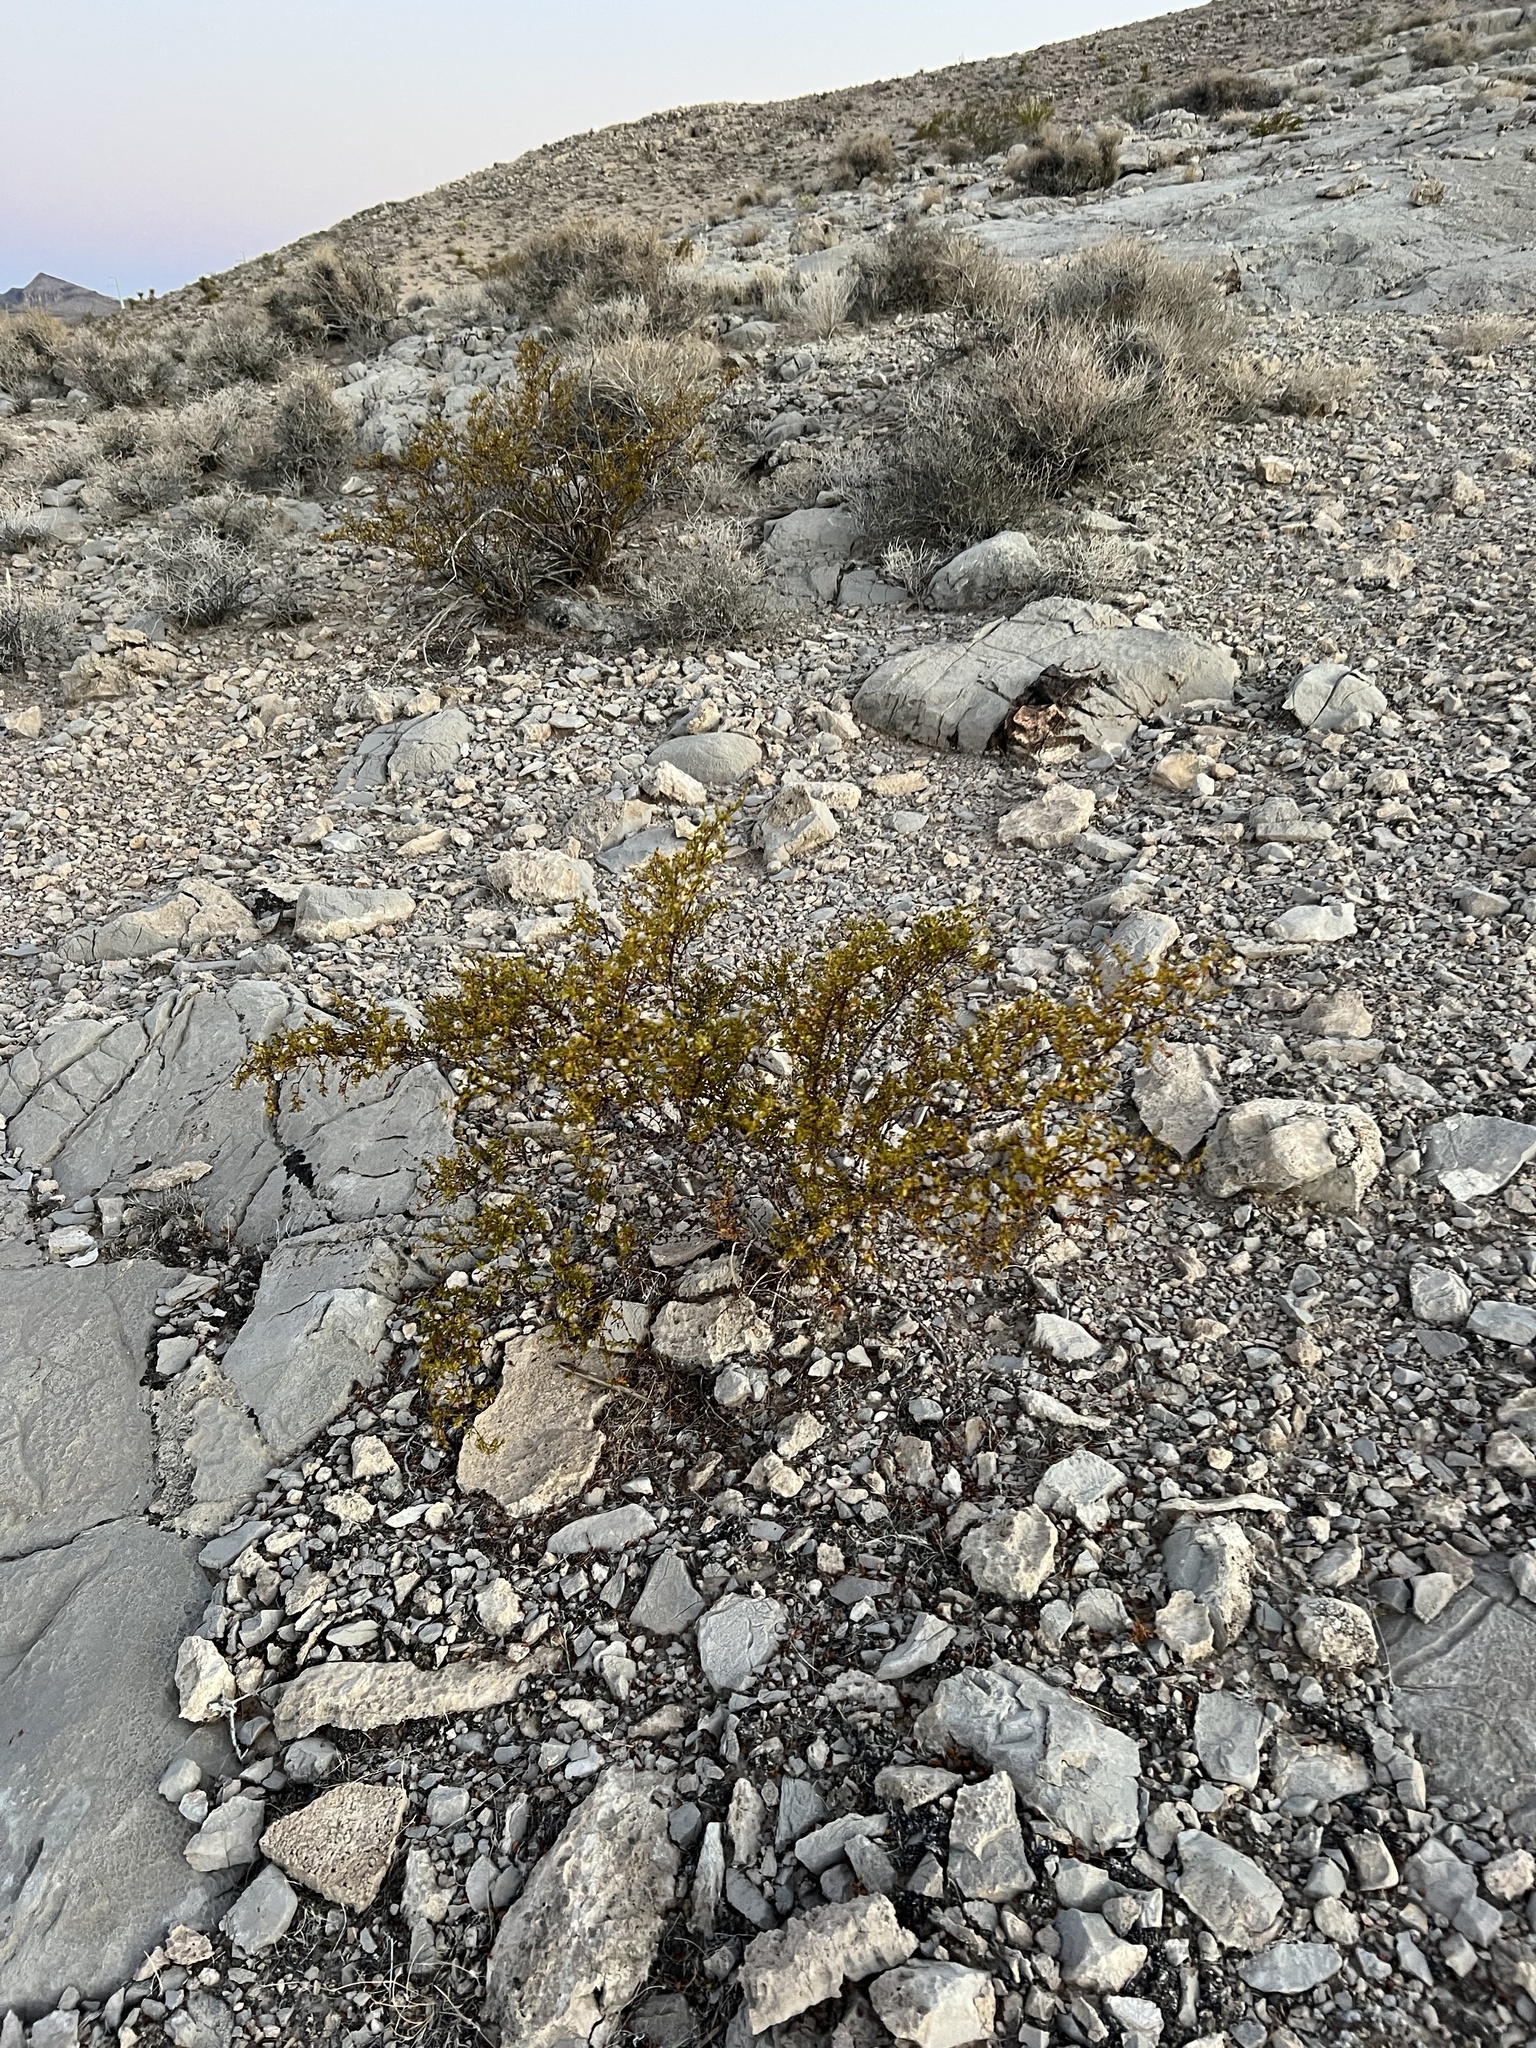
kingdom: Plantae
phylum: Tracheophyta
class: Magnoliopsida
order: Zygophyllales
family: Zygophyllaceae
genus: Larrea
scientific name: Larrea tridentata
